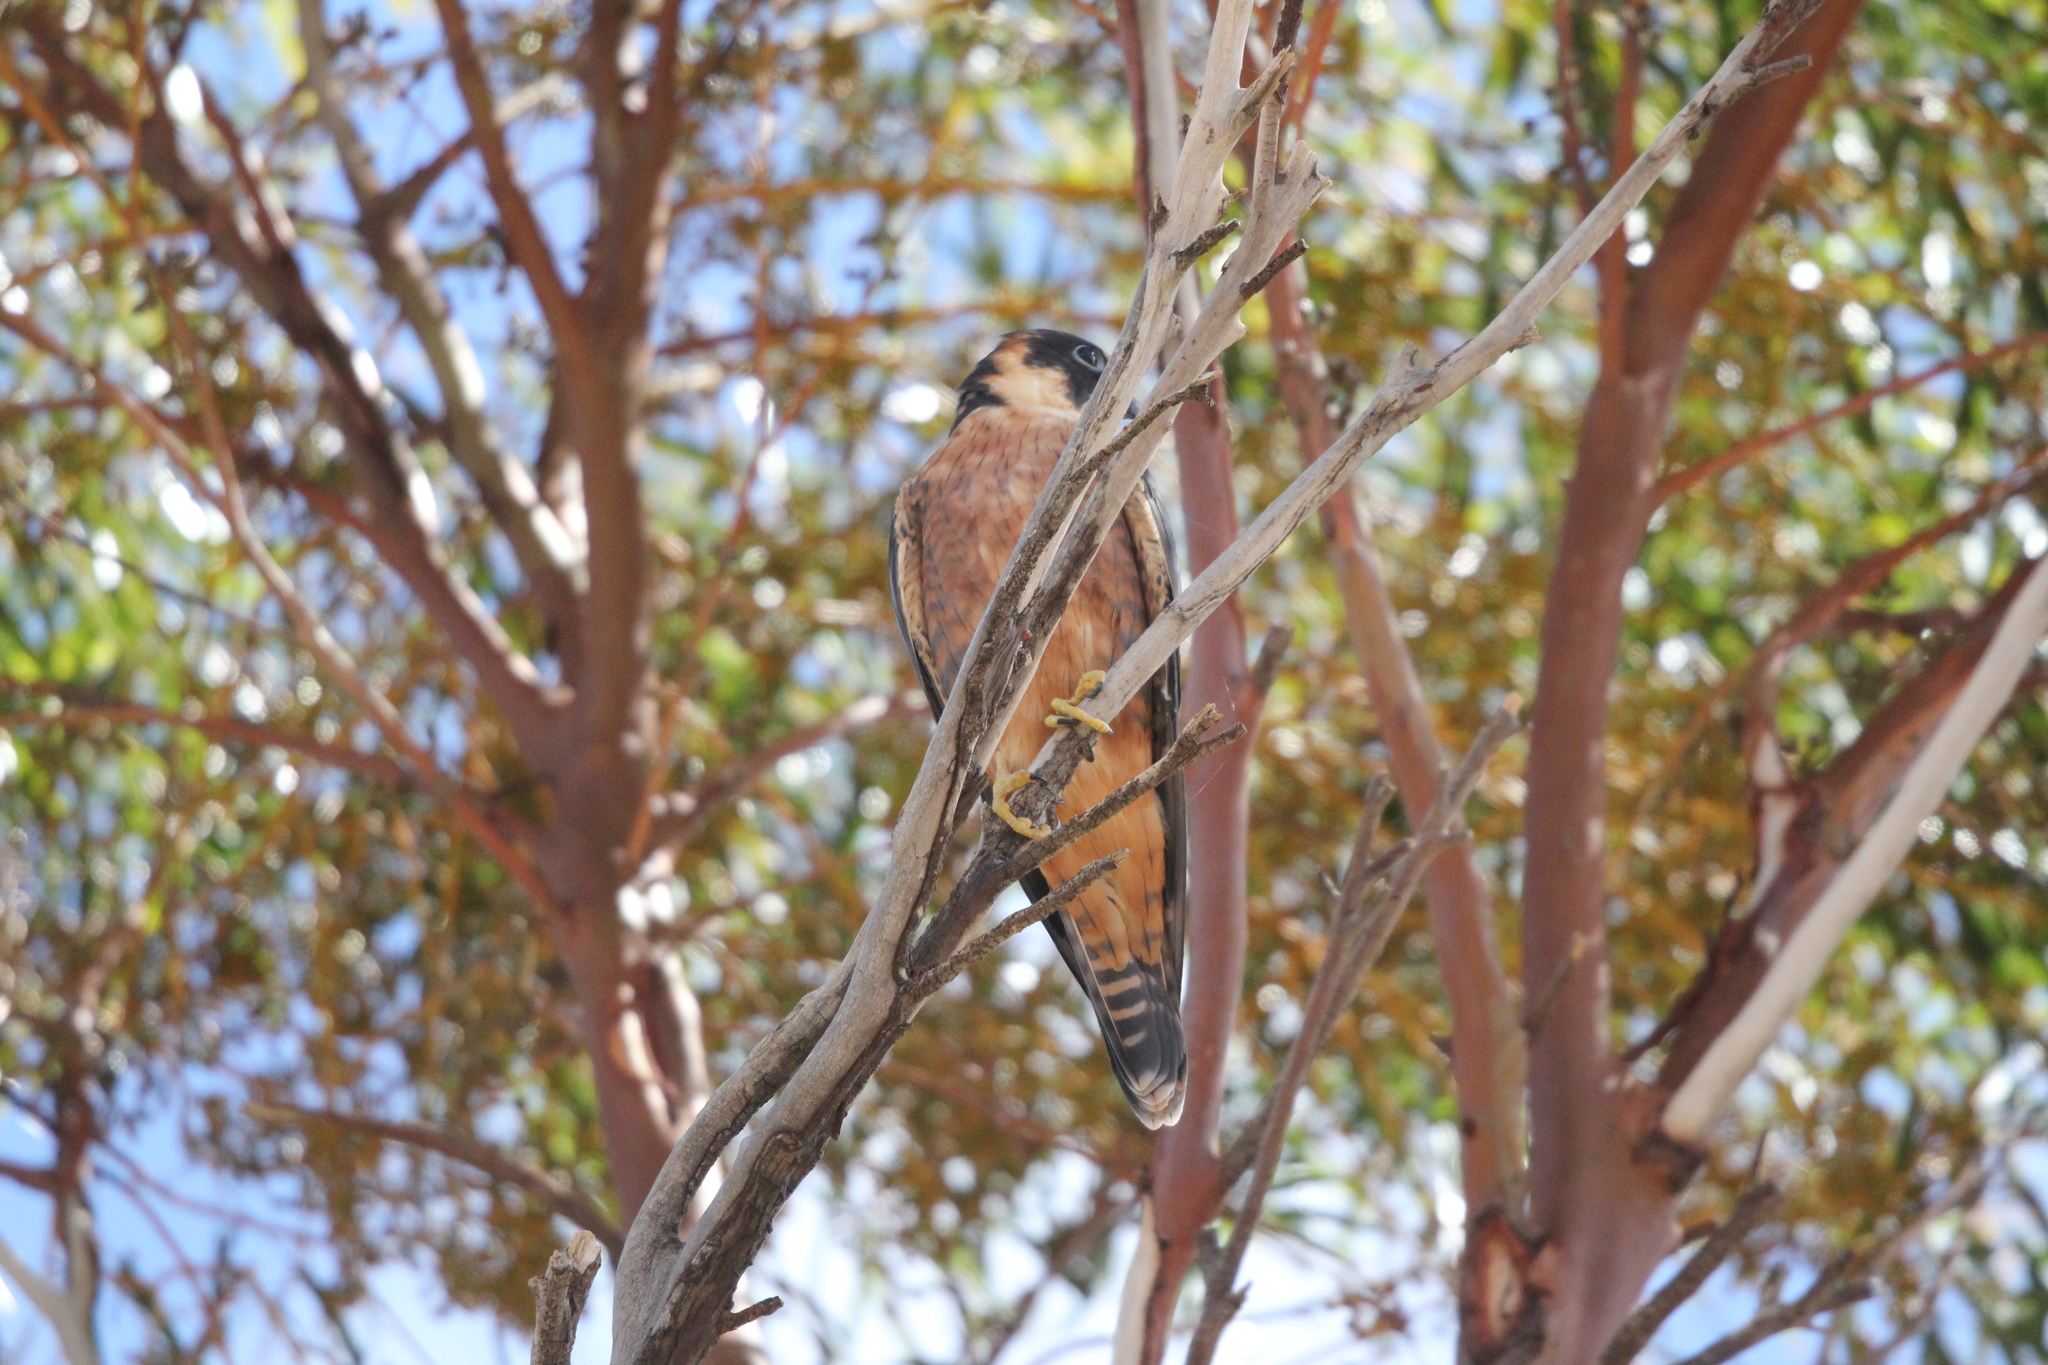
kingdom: Animalia
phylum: Chordata
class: Aves
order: Falconiformes
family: Falconidae
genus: Falco
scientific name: Falco longipennis
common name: Australian hobby
